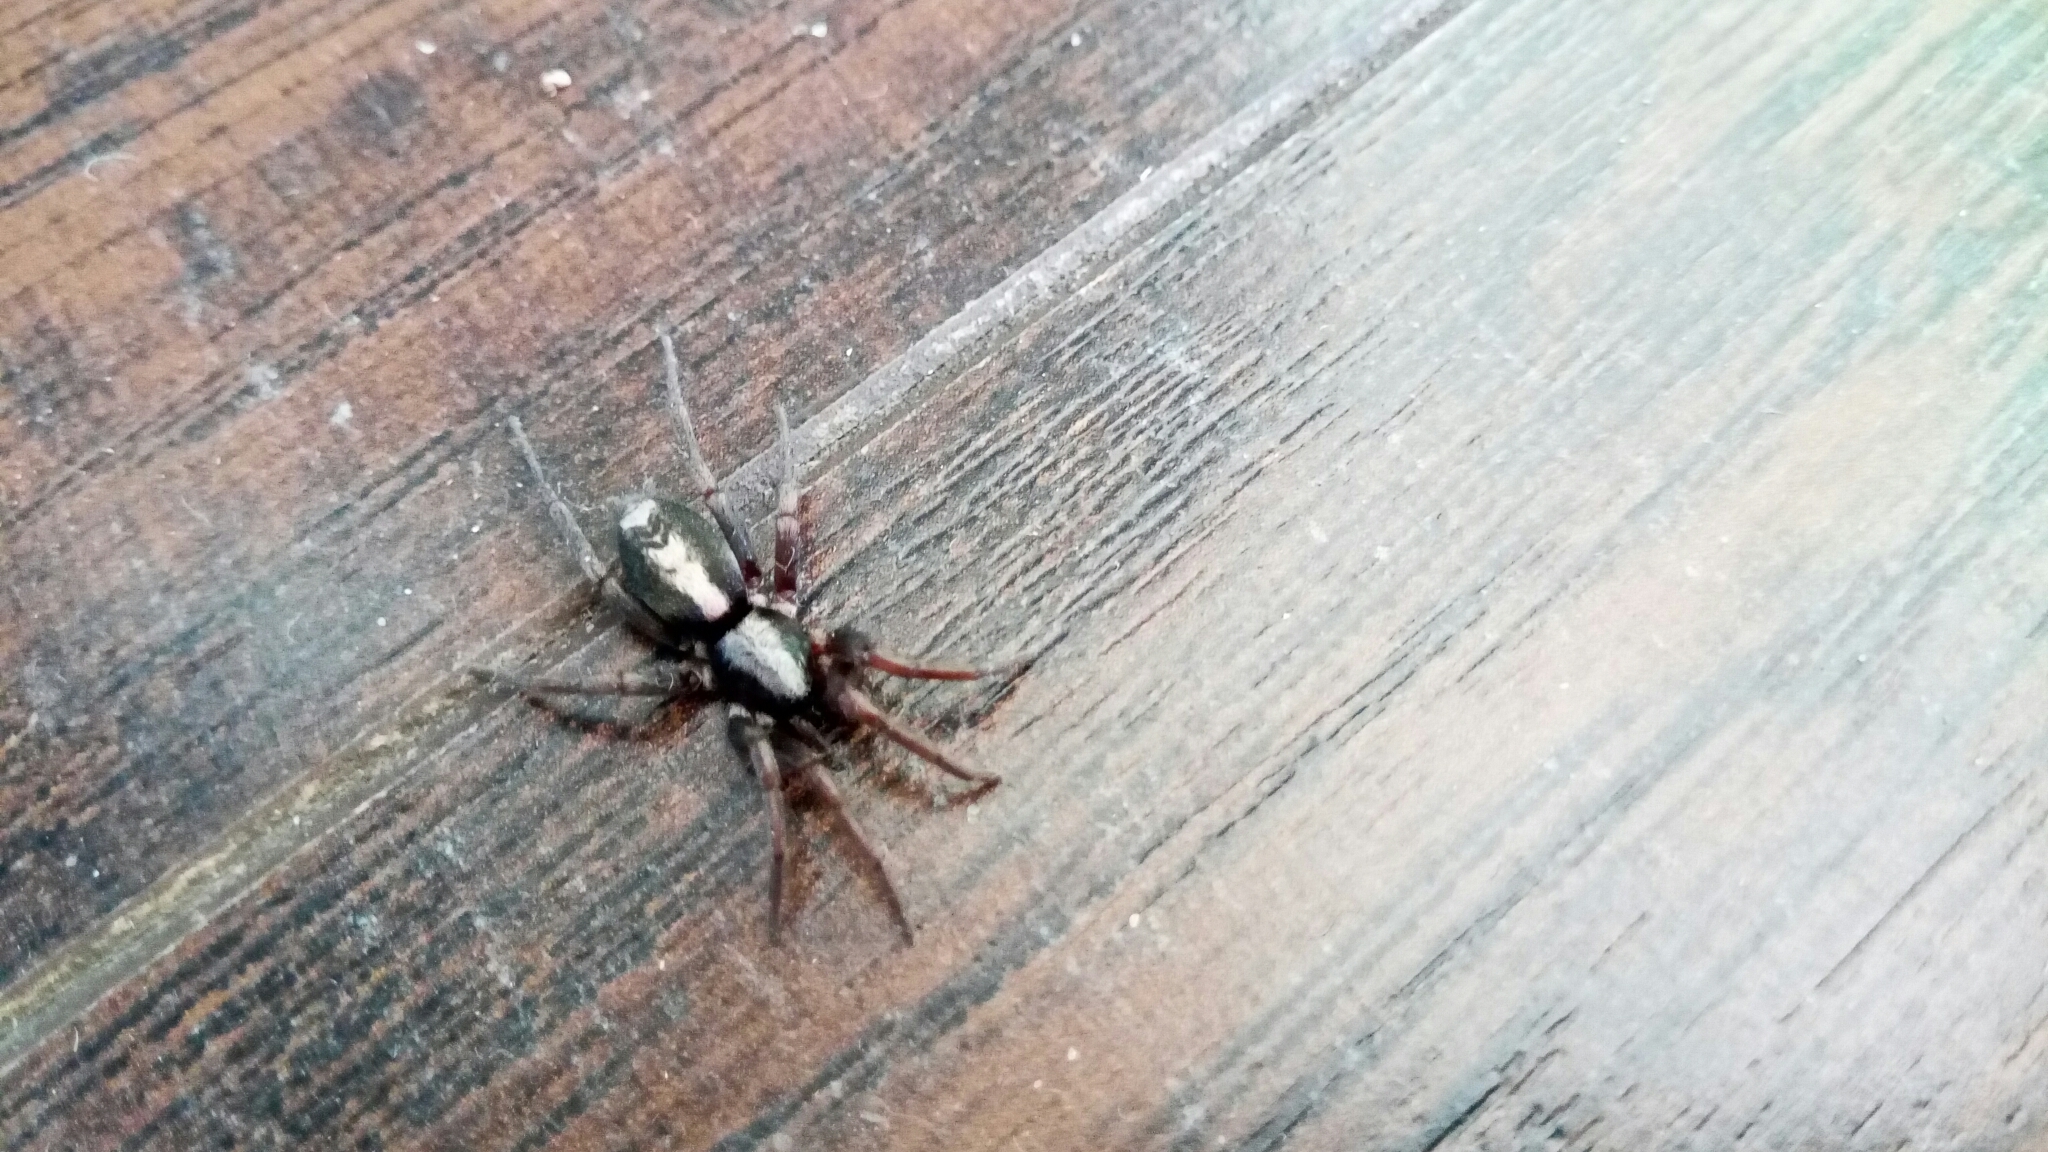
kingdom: Animalia
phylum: Arthropoda
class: Arachnida
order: Araneae
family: Gnaphosidae
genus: Herpyllus
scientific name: Herpyllus ecclesiasticus
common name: Eastern parson spider
